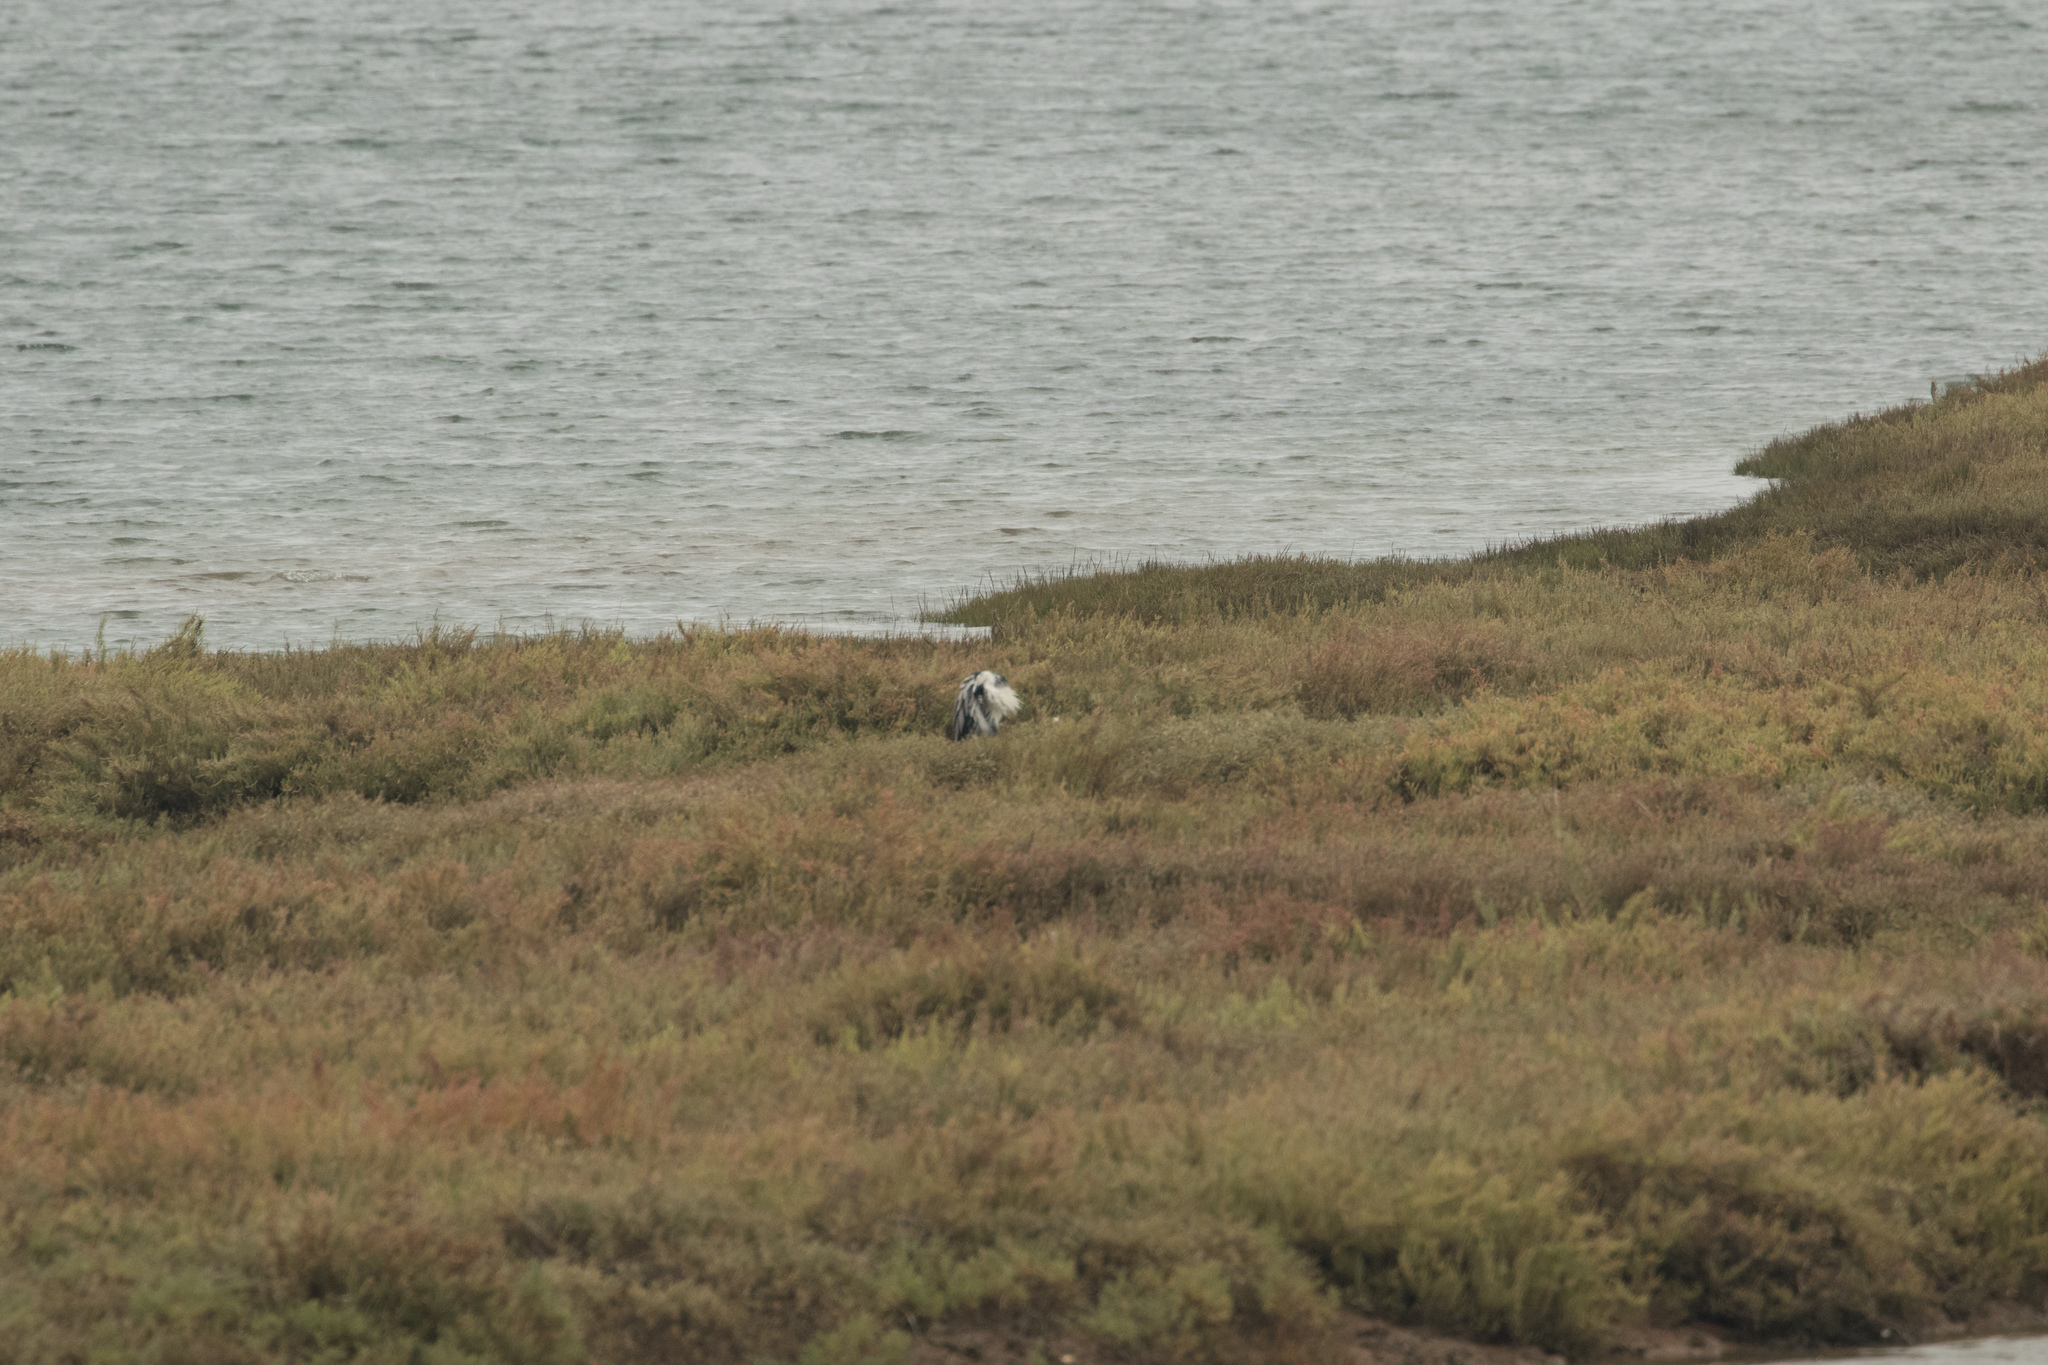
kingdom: Animalia
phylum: Chordata
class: Aves
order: Pelecaniformes
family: Ardeidae
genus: Ardea
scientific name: Ardea cinerea
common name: Grey heron
